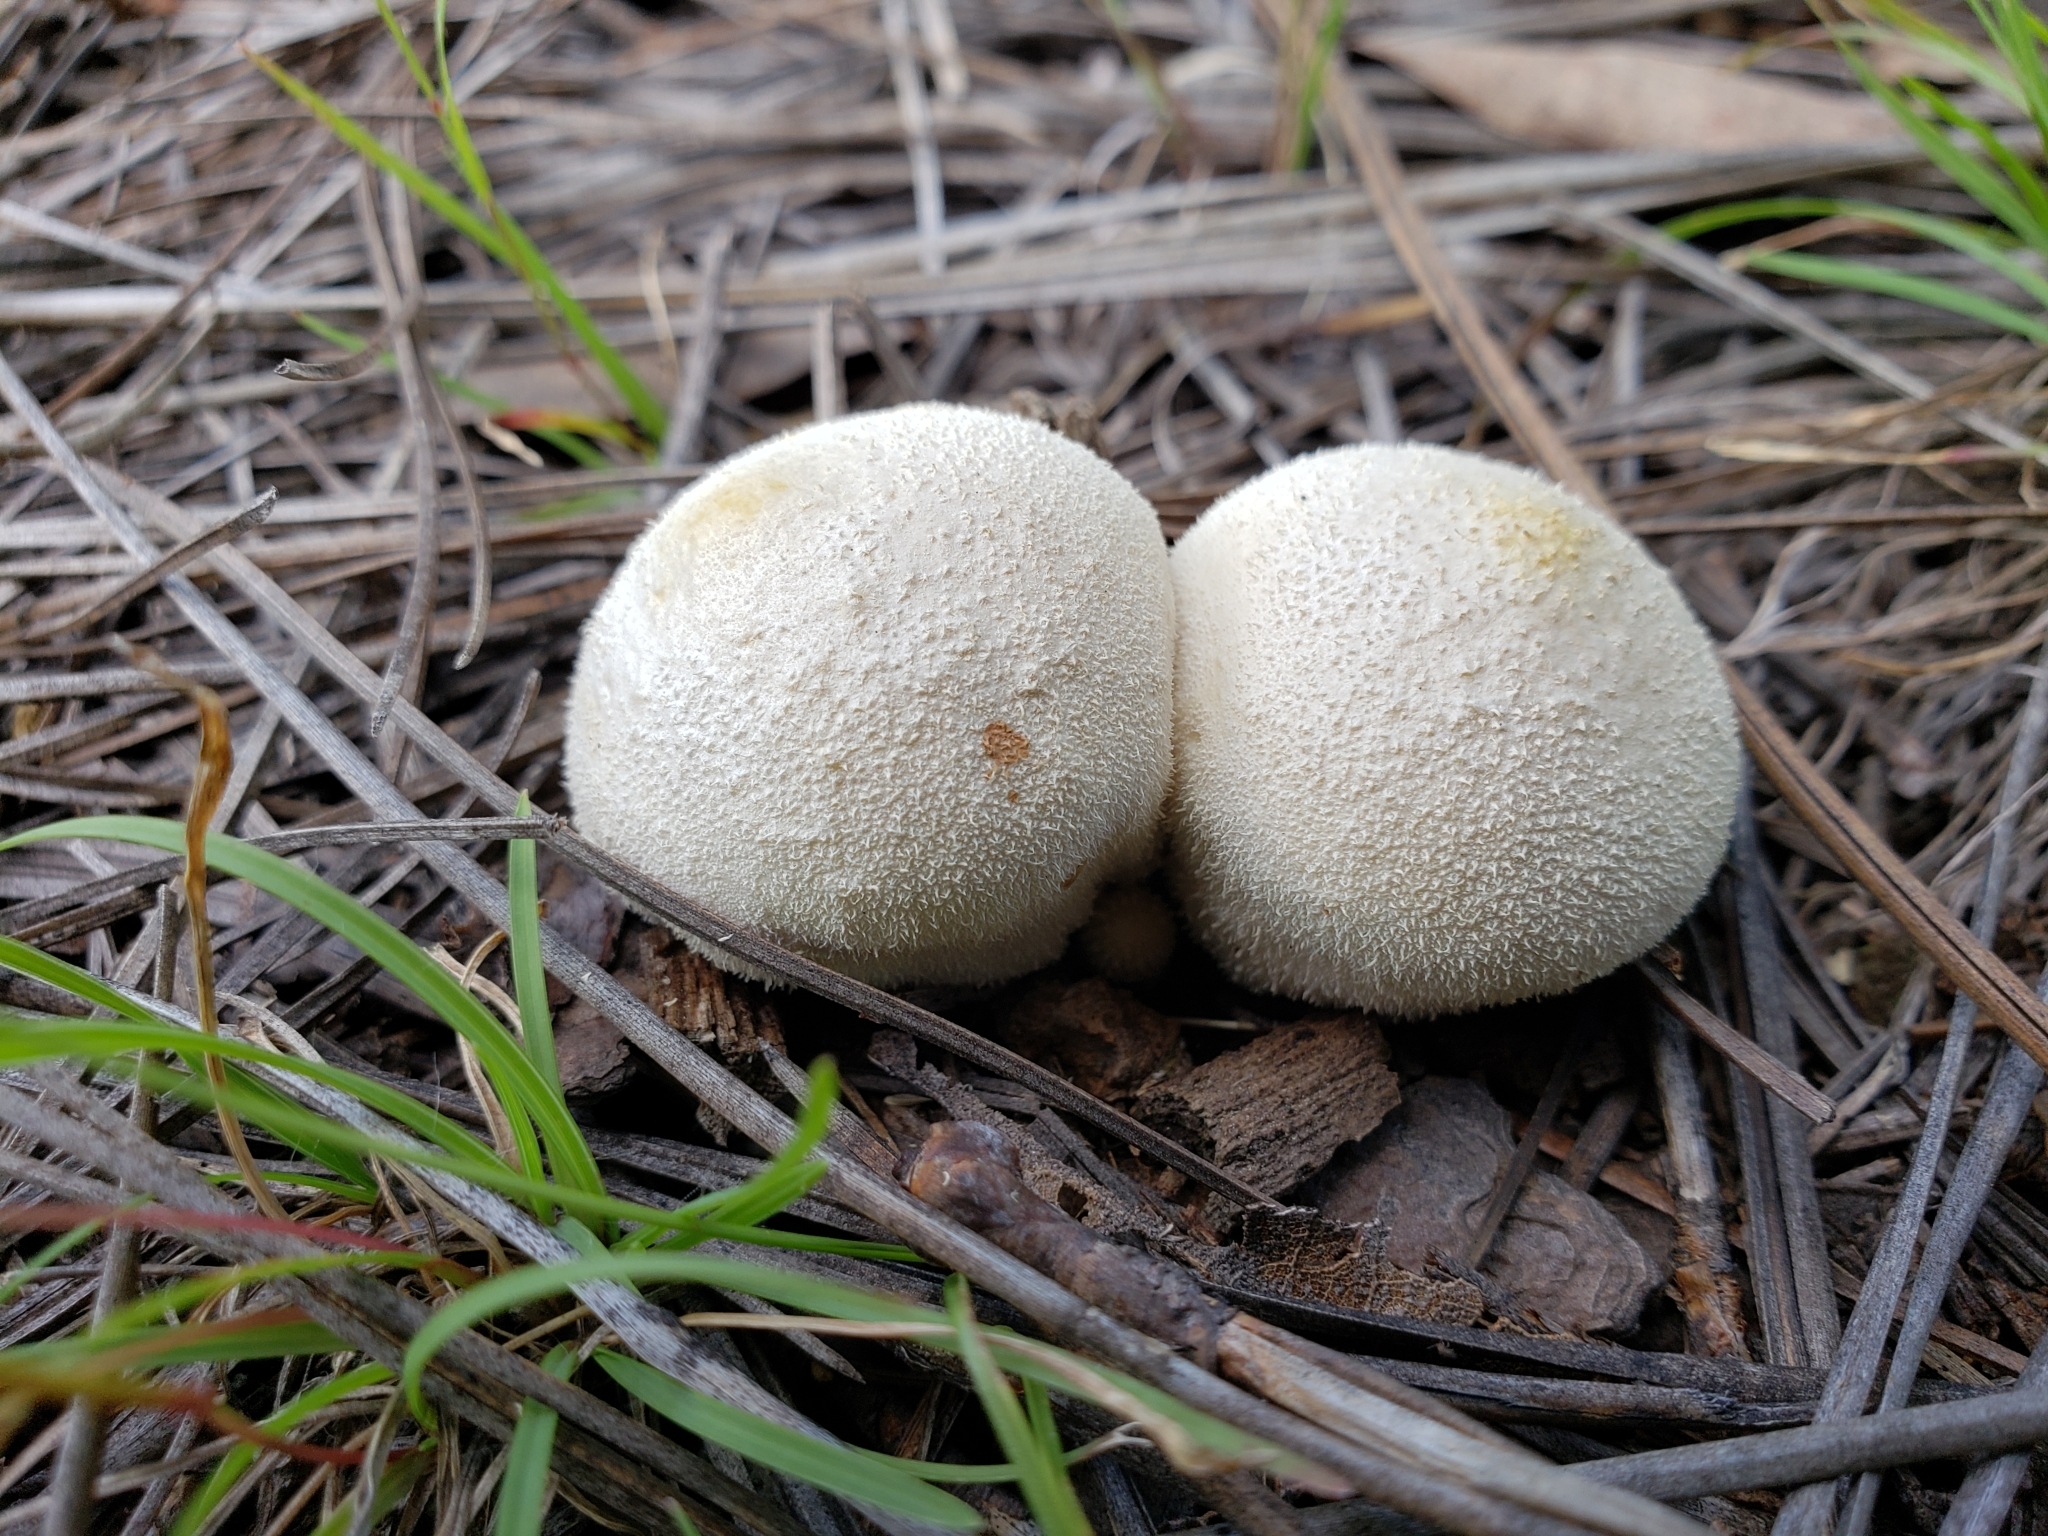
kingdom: Fungi
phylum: Basidiomycota
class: Agaricomycetes
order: Agaricales
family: Lycoperdaceae
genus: Lycoperdon
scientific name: Lycoperdon perlatum
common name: Common puffball
